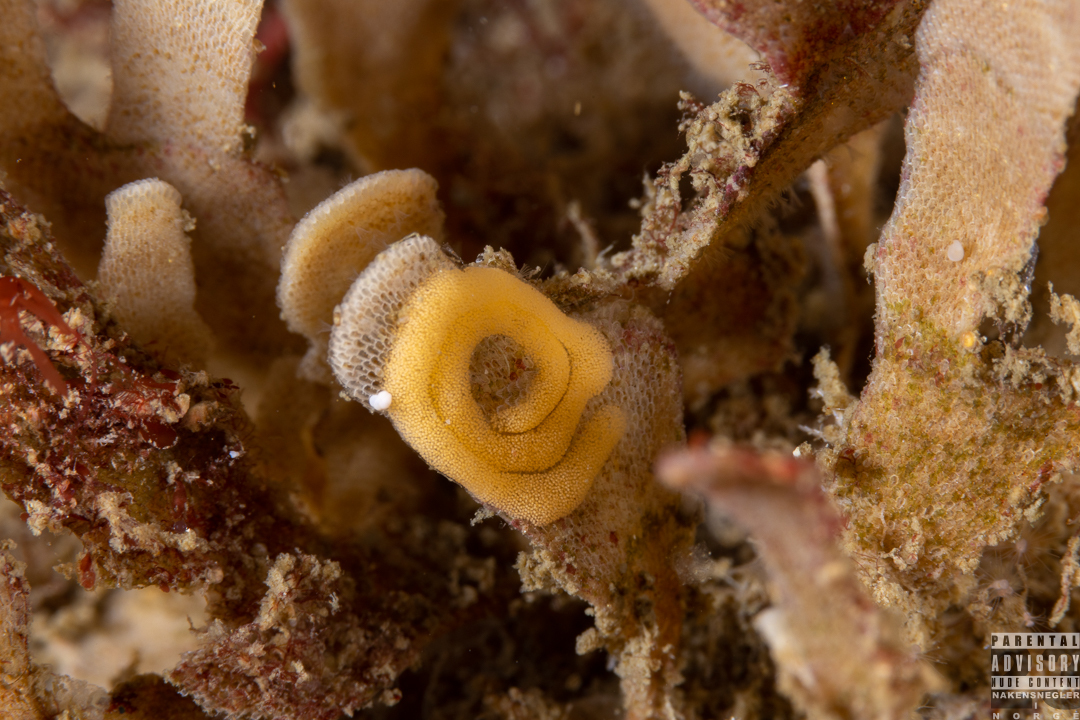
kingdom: Animalia
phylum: Mollusca
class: Gastropoda
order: Nudibranchia
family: Polyceridae
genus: Crimora
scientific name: Crimora papillata
